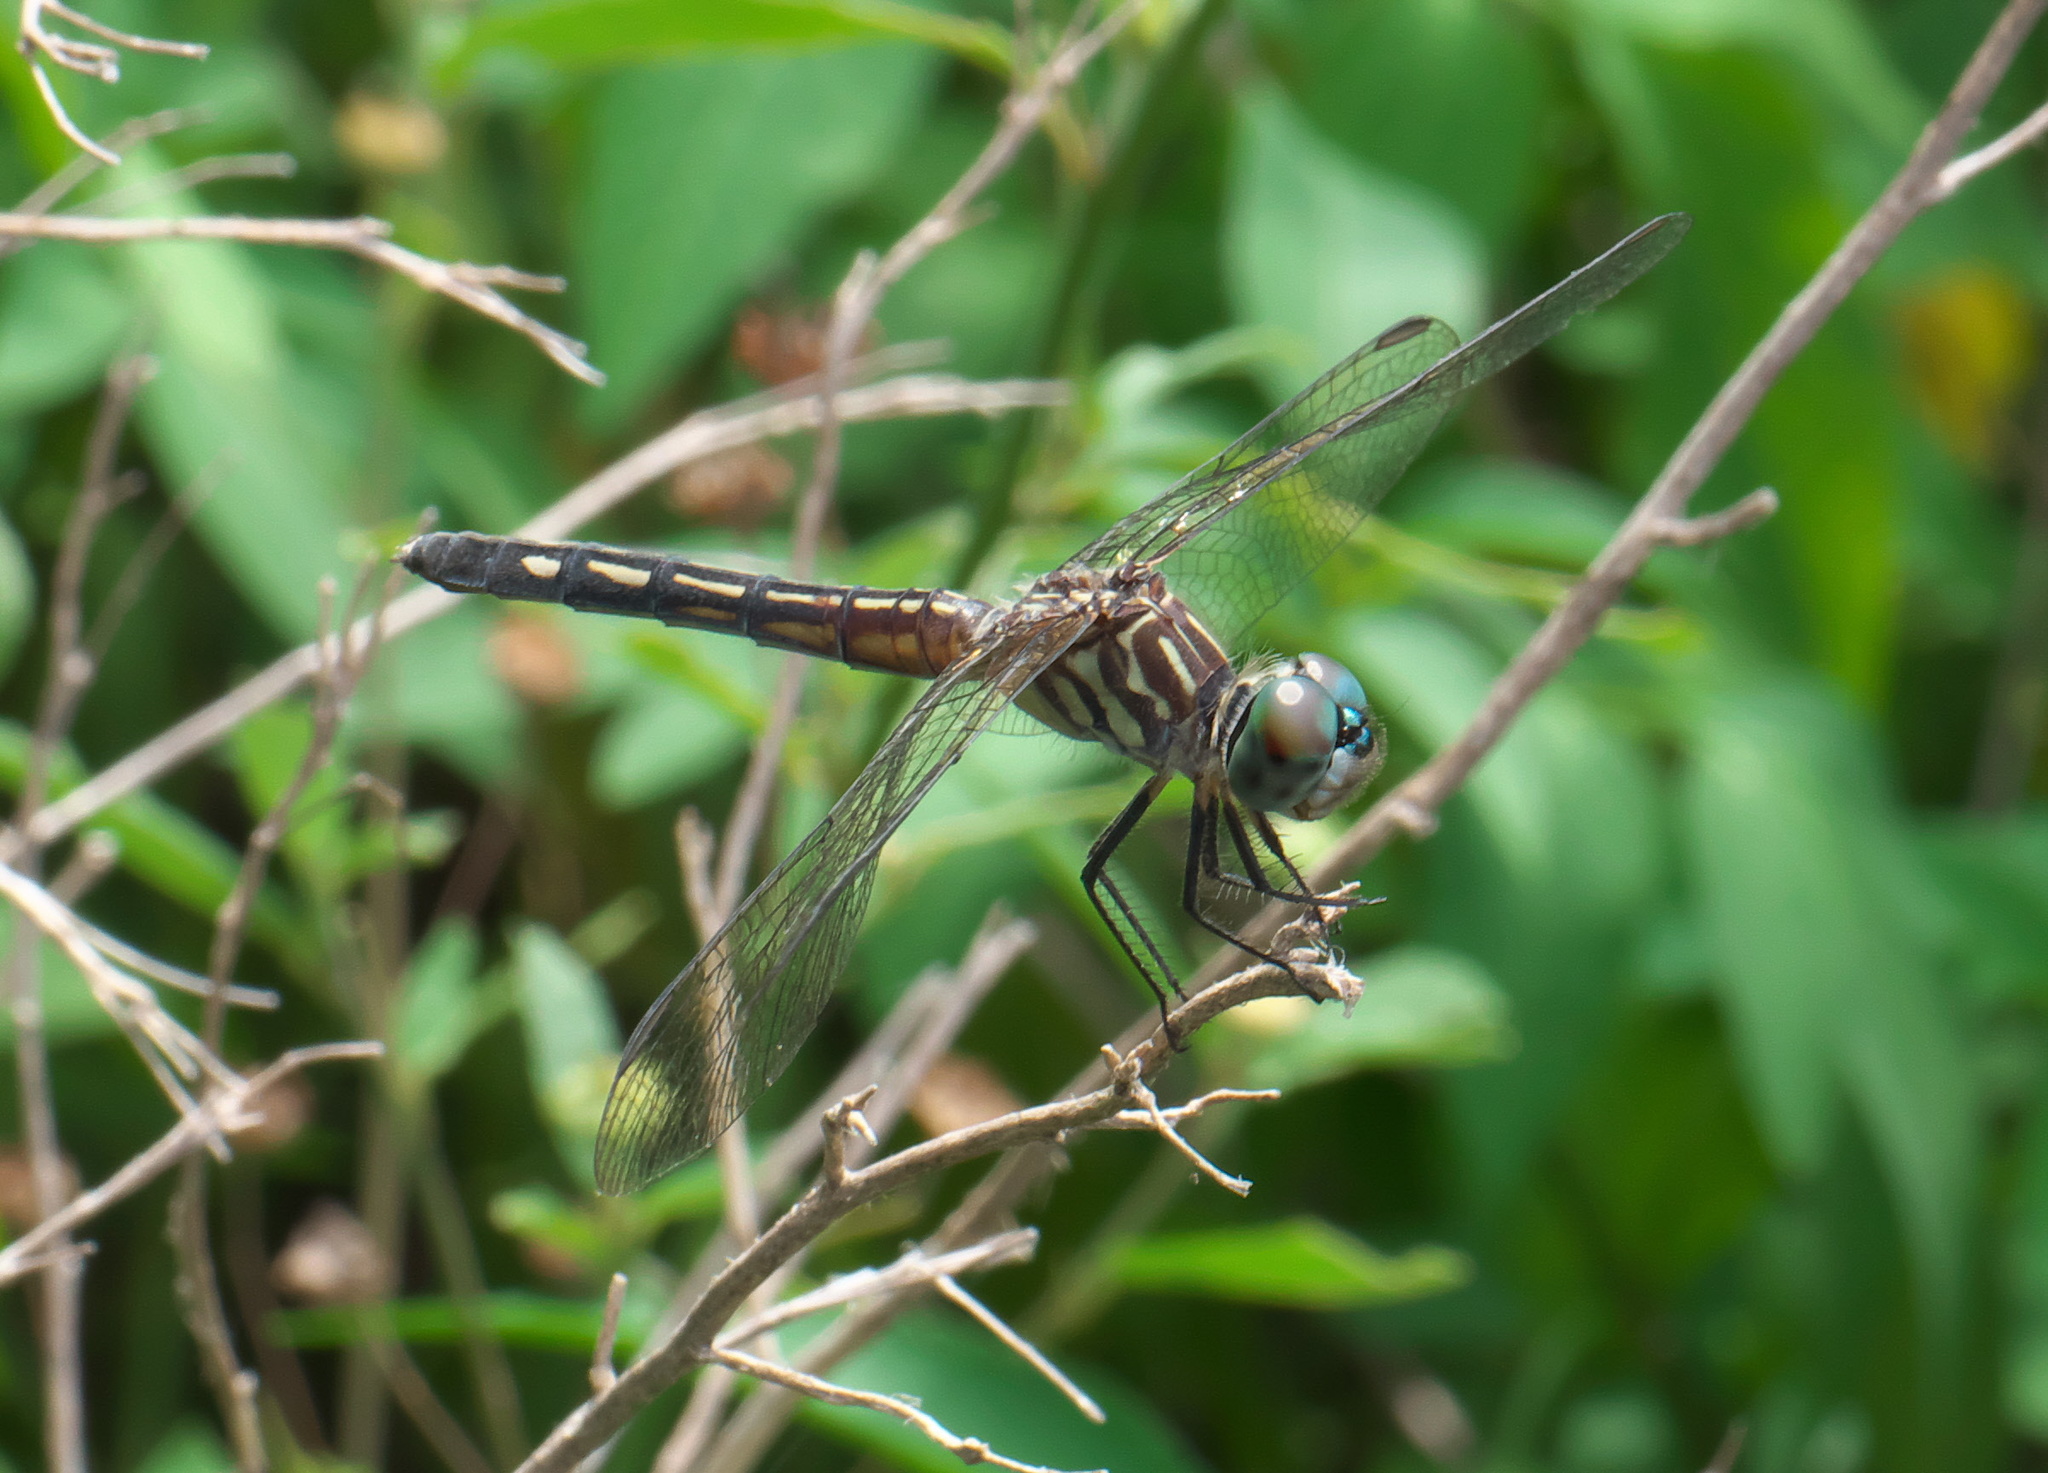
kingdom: Animalia
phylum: Arthropoda
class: Insecta
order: Odonata
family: Libellulidae
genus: Pachydiplax
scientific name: Pachydiplax longipennis
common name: Blue dasher
